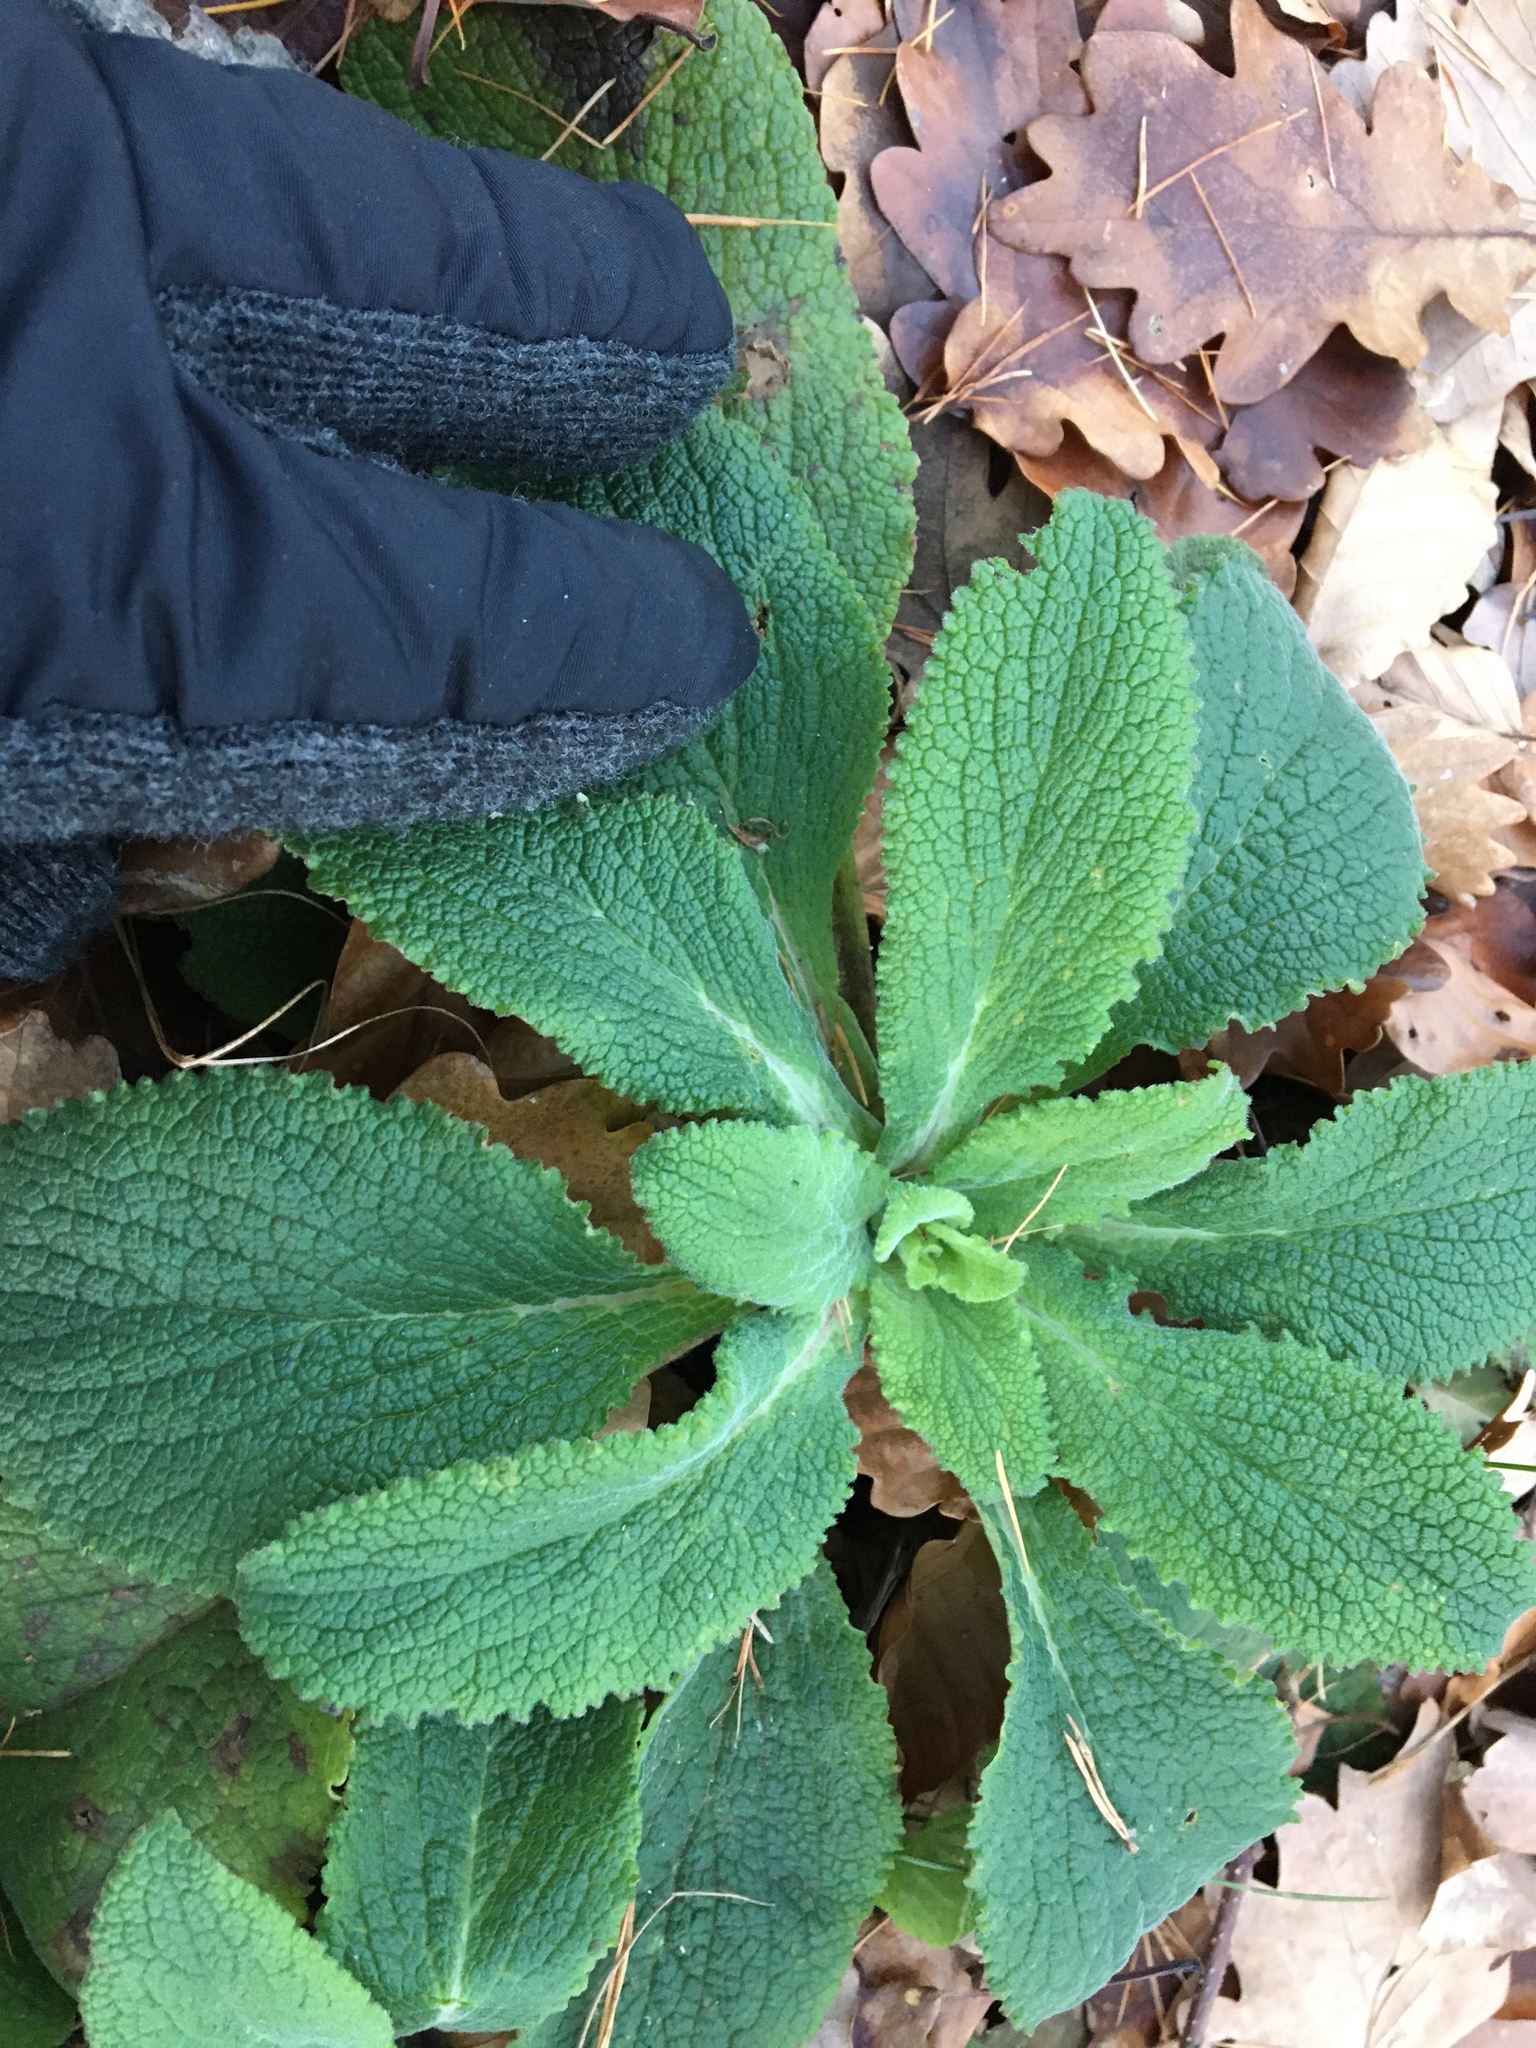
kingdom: Plantae
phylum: Tracheophyta
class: Magnoliopsida
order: Lamiales
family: Plantaginaceae
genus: Digitalis
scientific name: Digitalis purpurea
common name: Foxglove
